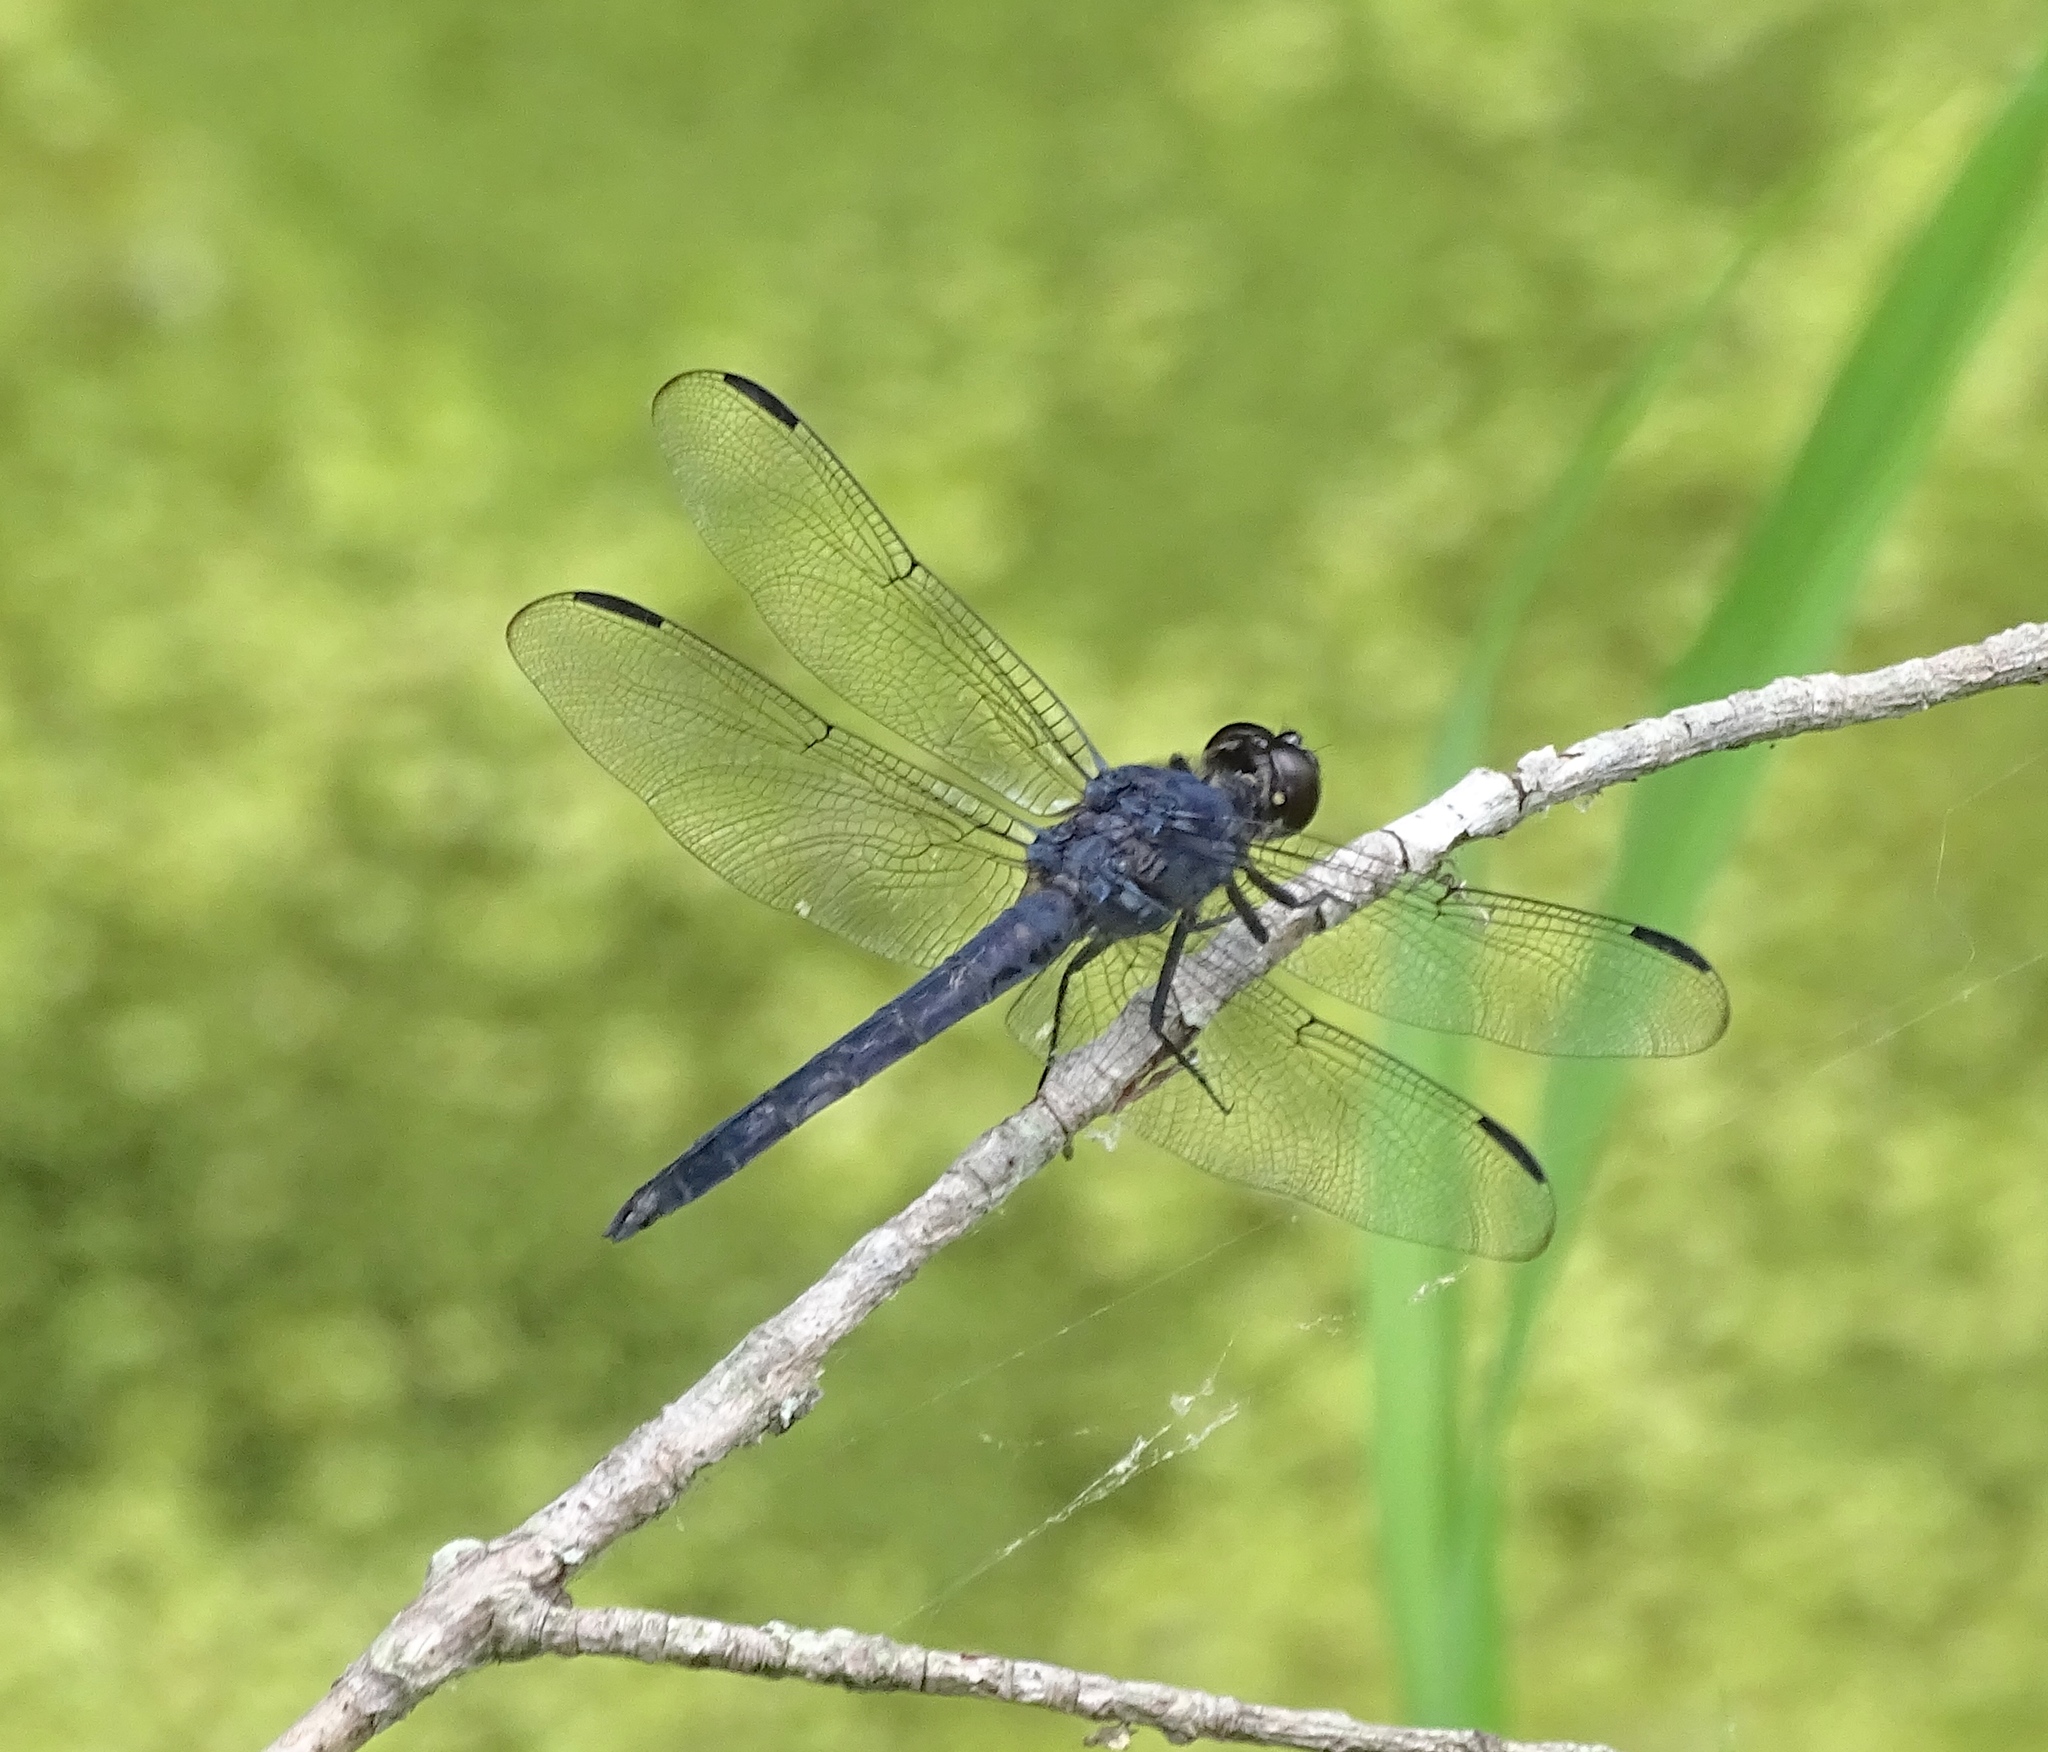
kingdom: Animalia
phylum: Arthropoda
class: Insecta
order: Odonata
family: Libellulidae
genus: Libellula
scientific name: Libellula incesta
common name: Slaty skimmer
